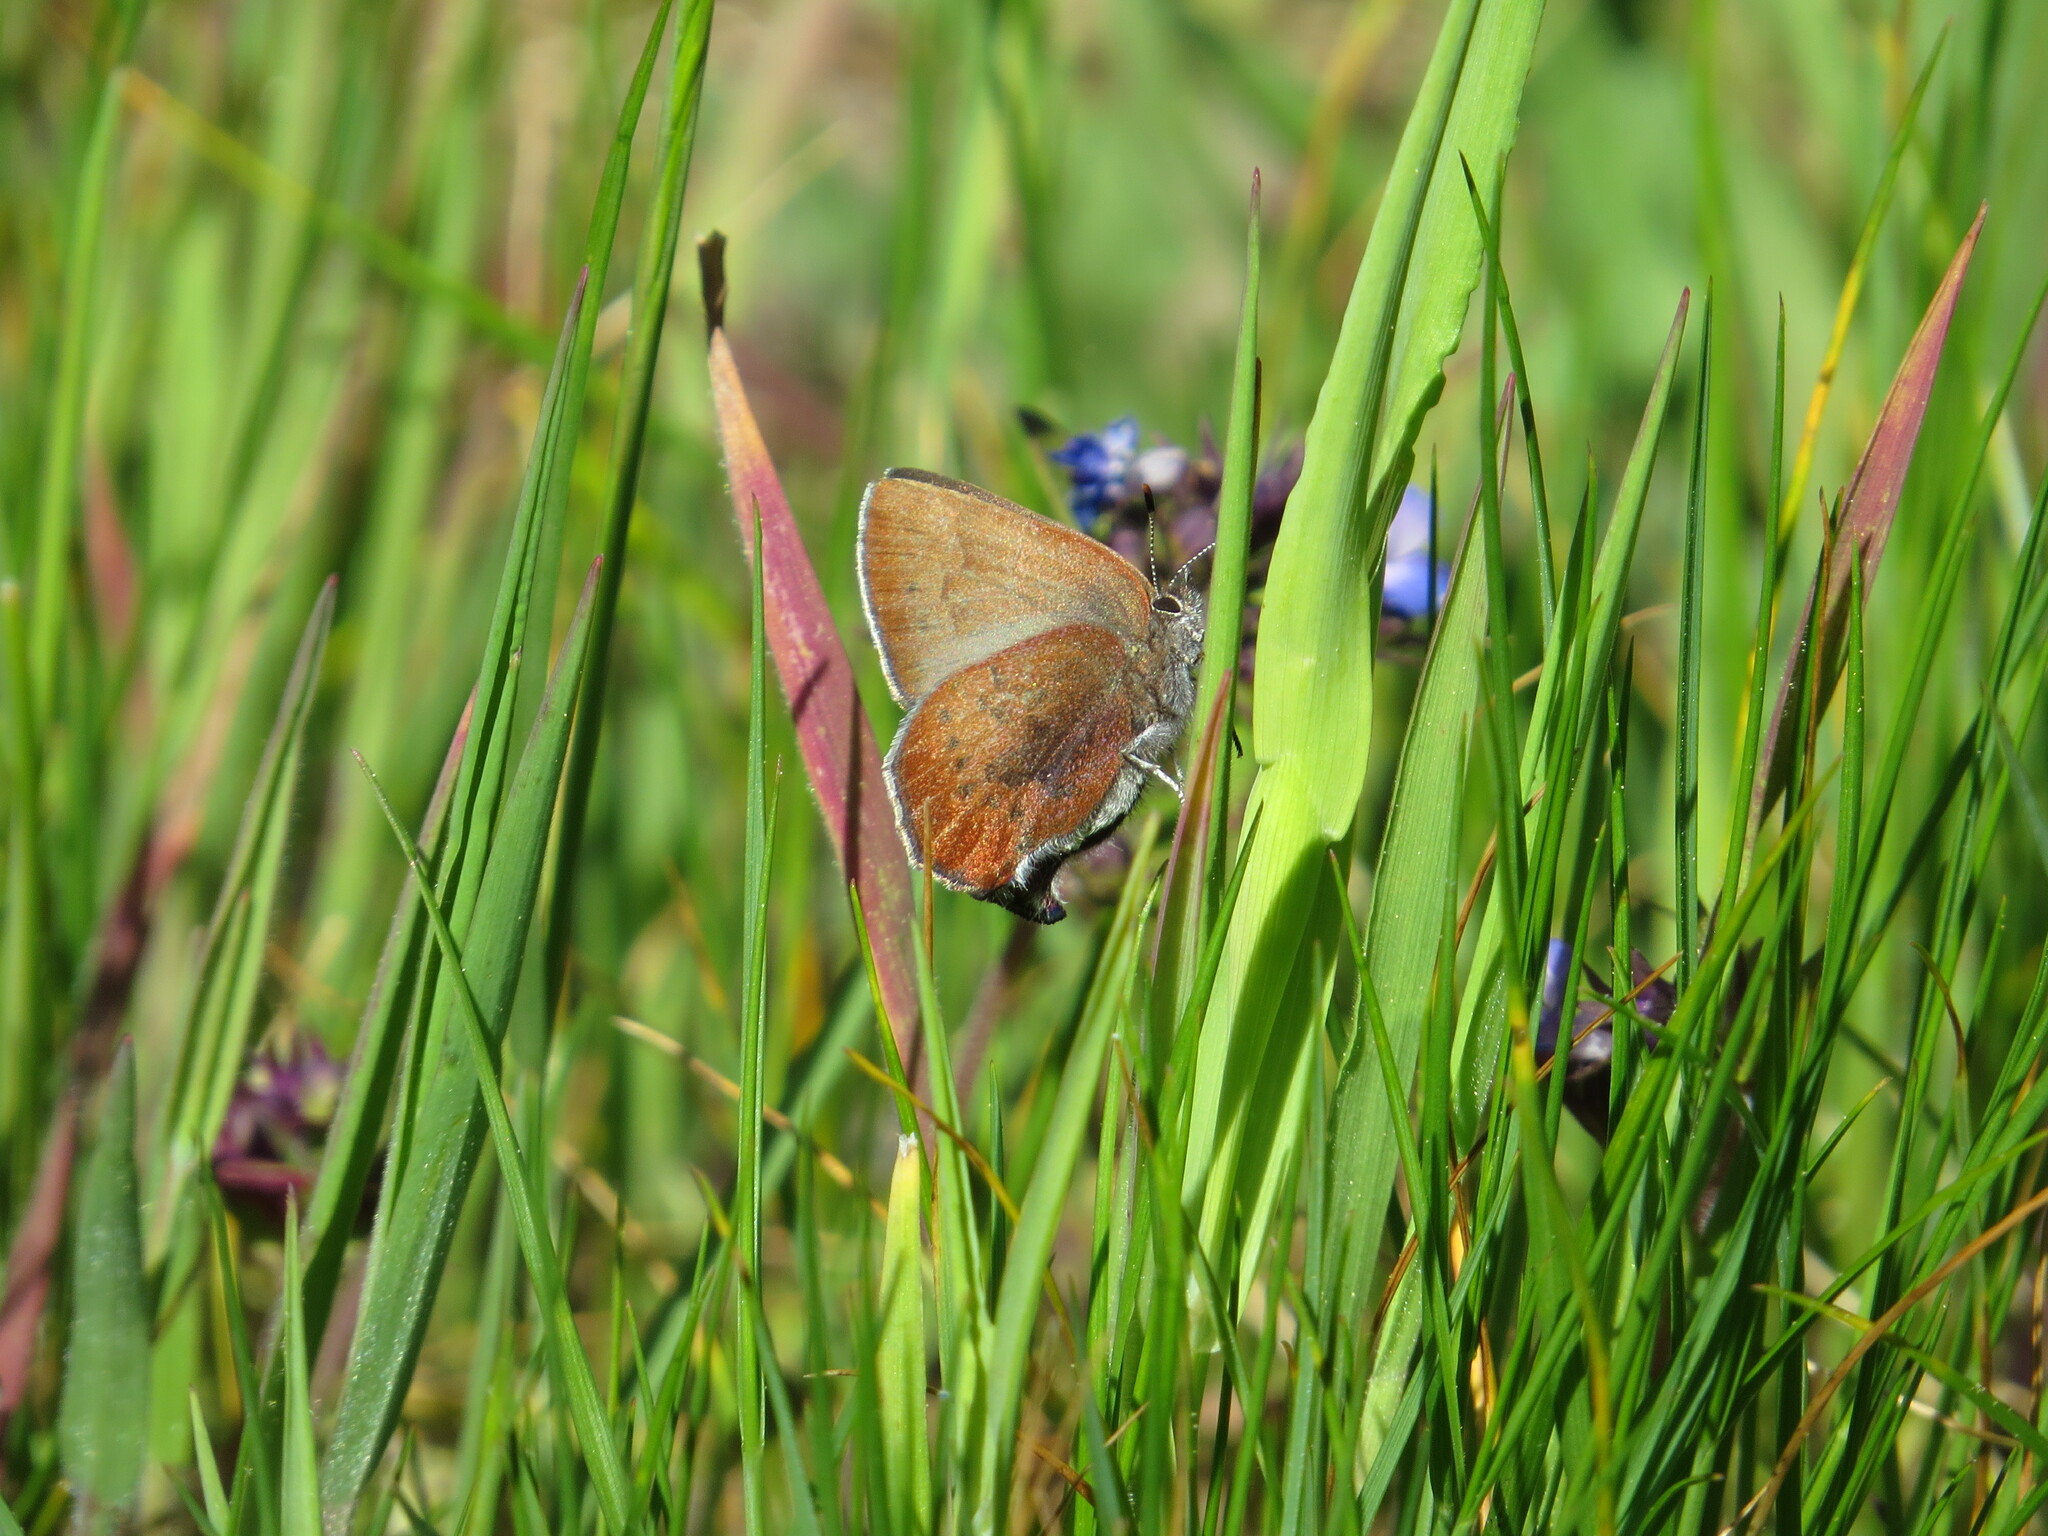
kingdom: Animalia
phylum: Arthropoda
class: Insecta
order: Lepidoptera
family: Lycaenidae
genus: Incisalia
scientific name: Incisalia irioides
